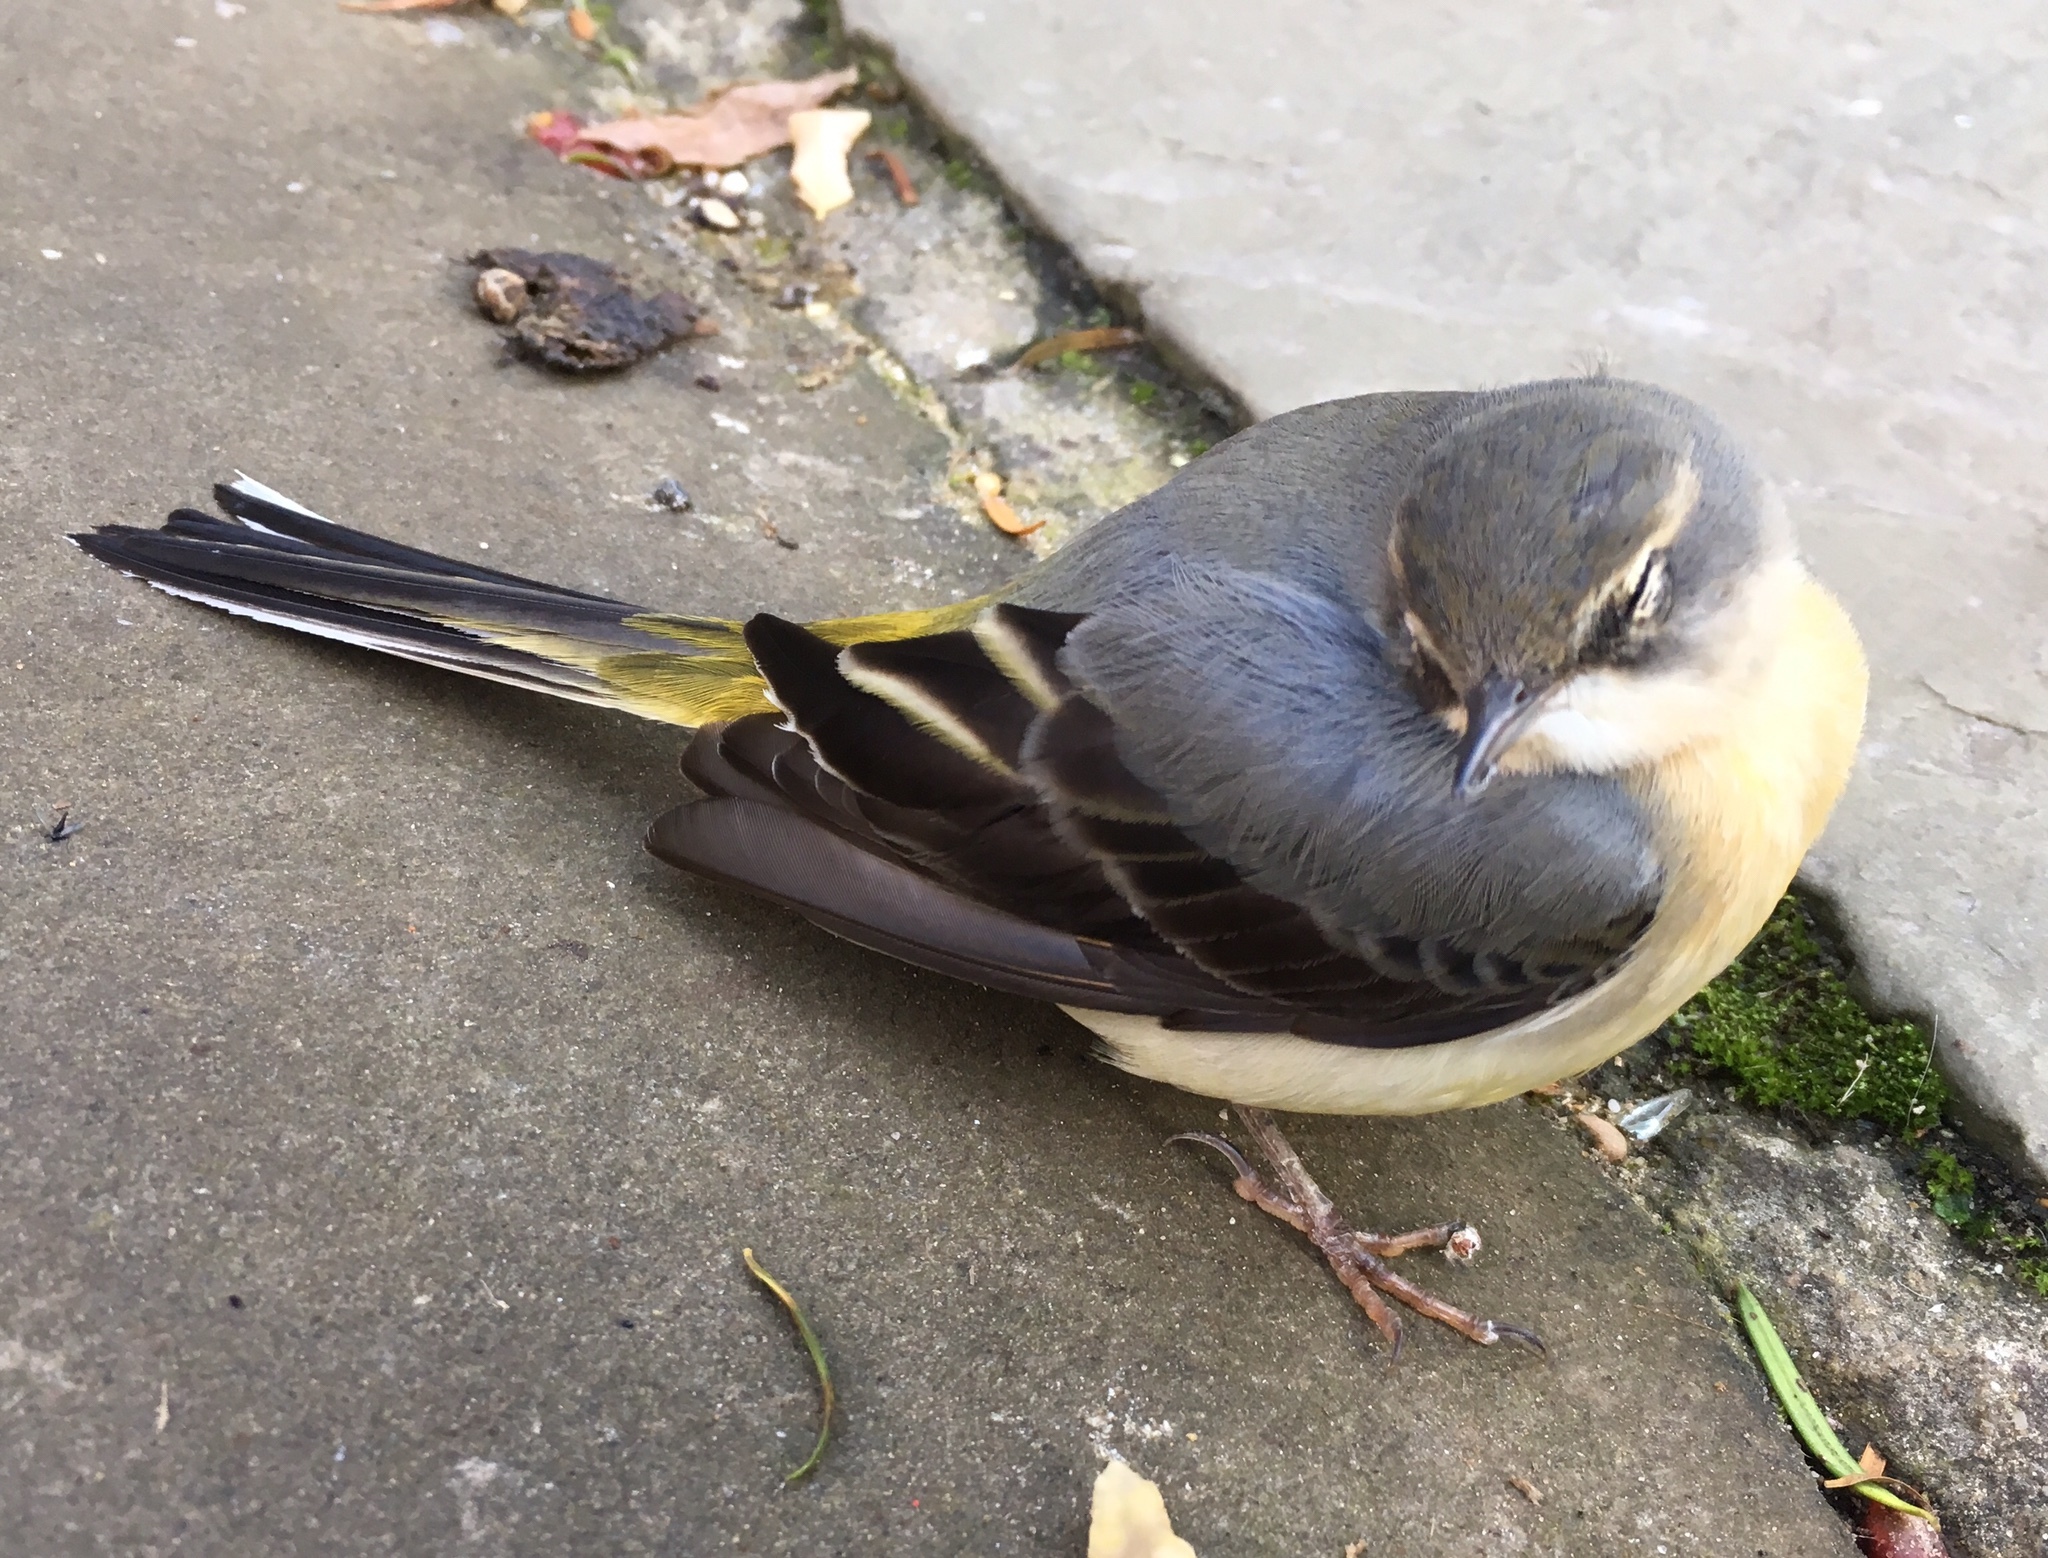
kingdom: Animalia
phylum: Chordata
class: Aves
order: Passeriformes
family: Motacillidae
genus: Motacilla
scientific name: Motacilla cinerea
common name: Grey wagtail
